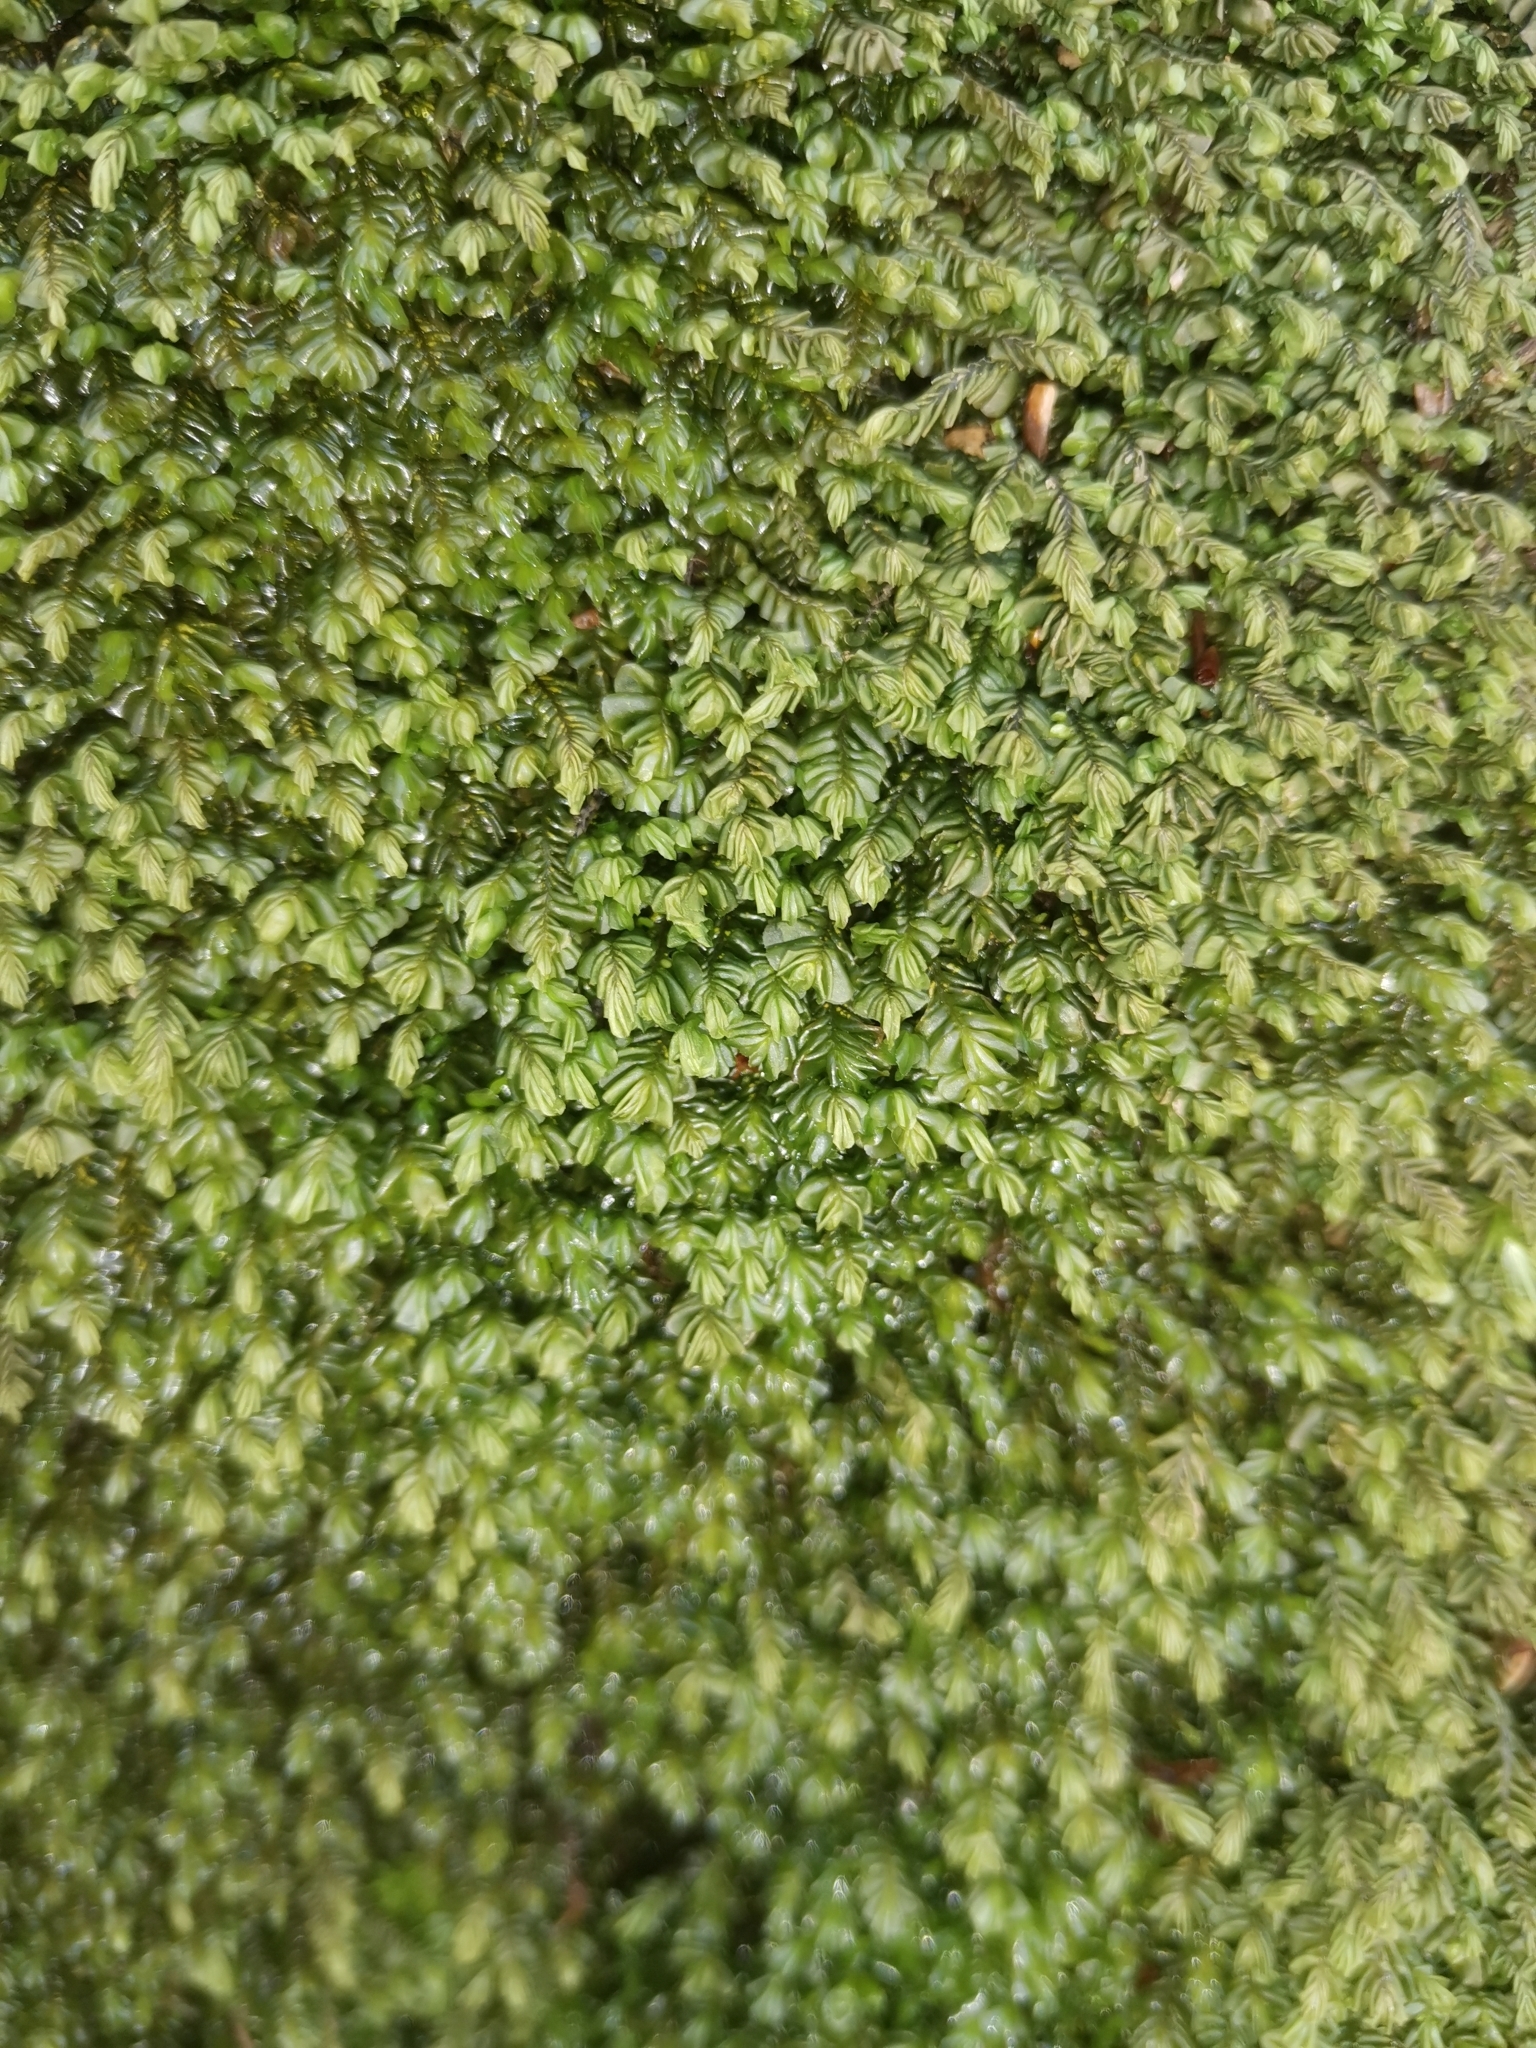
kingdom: Plantae
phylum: Marchantiophyta
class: Jungermanniopsida
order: Jungermanniales
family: Plagiochilaceae
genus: Plagiochila
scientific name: Plagiochila porelloides
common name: Lesser featherwort
